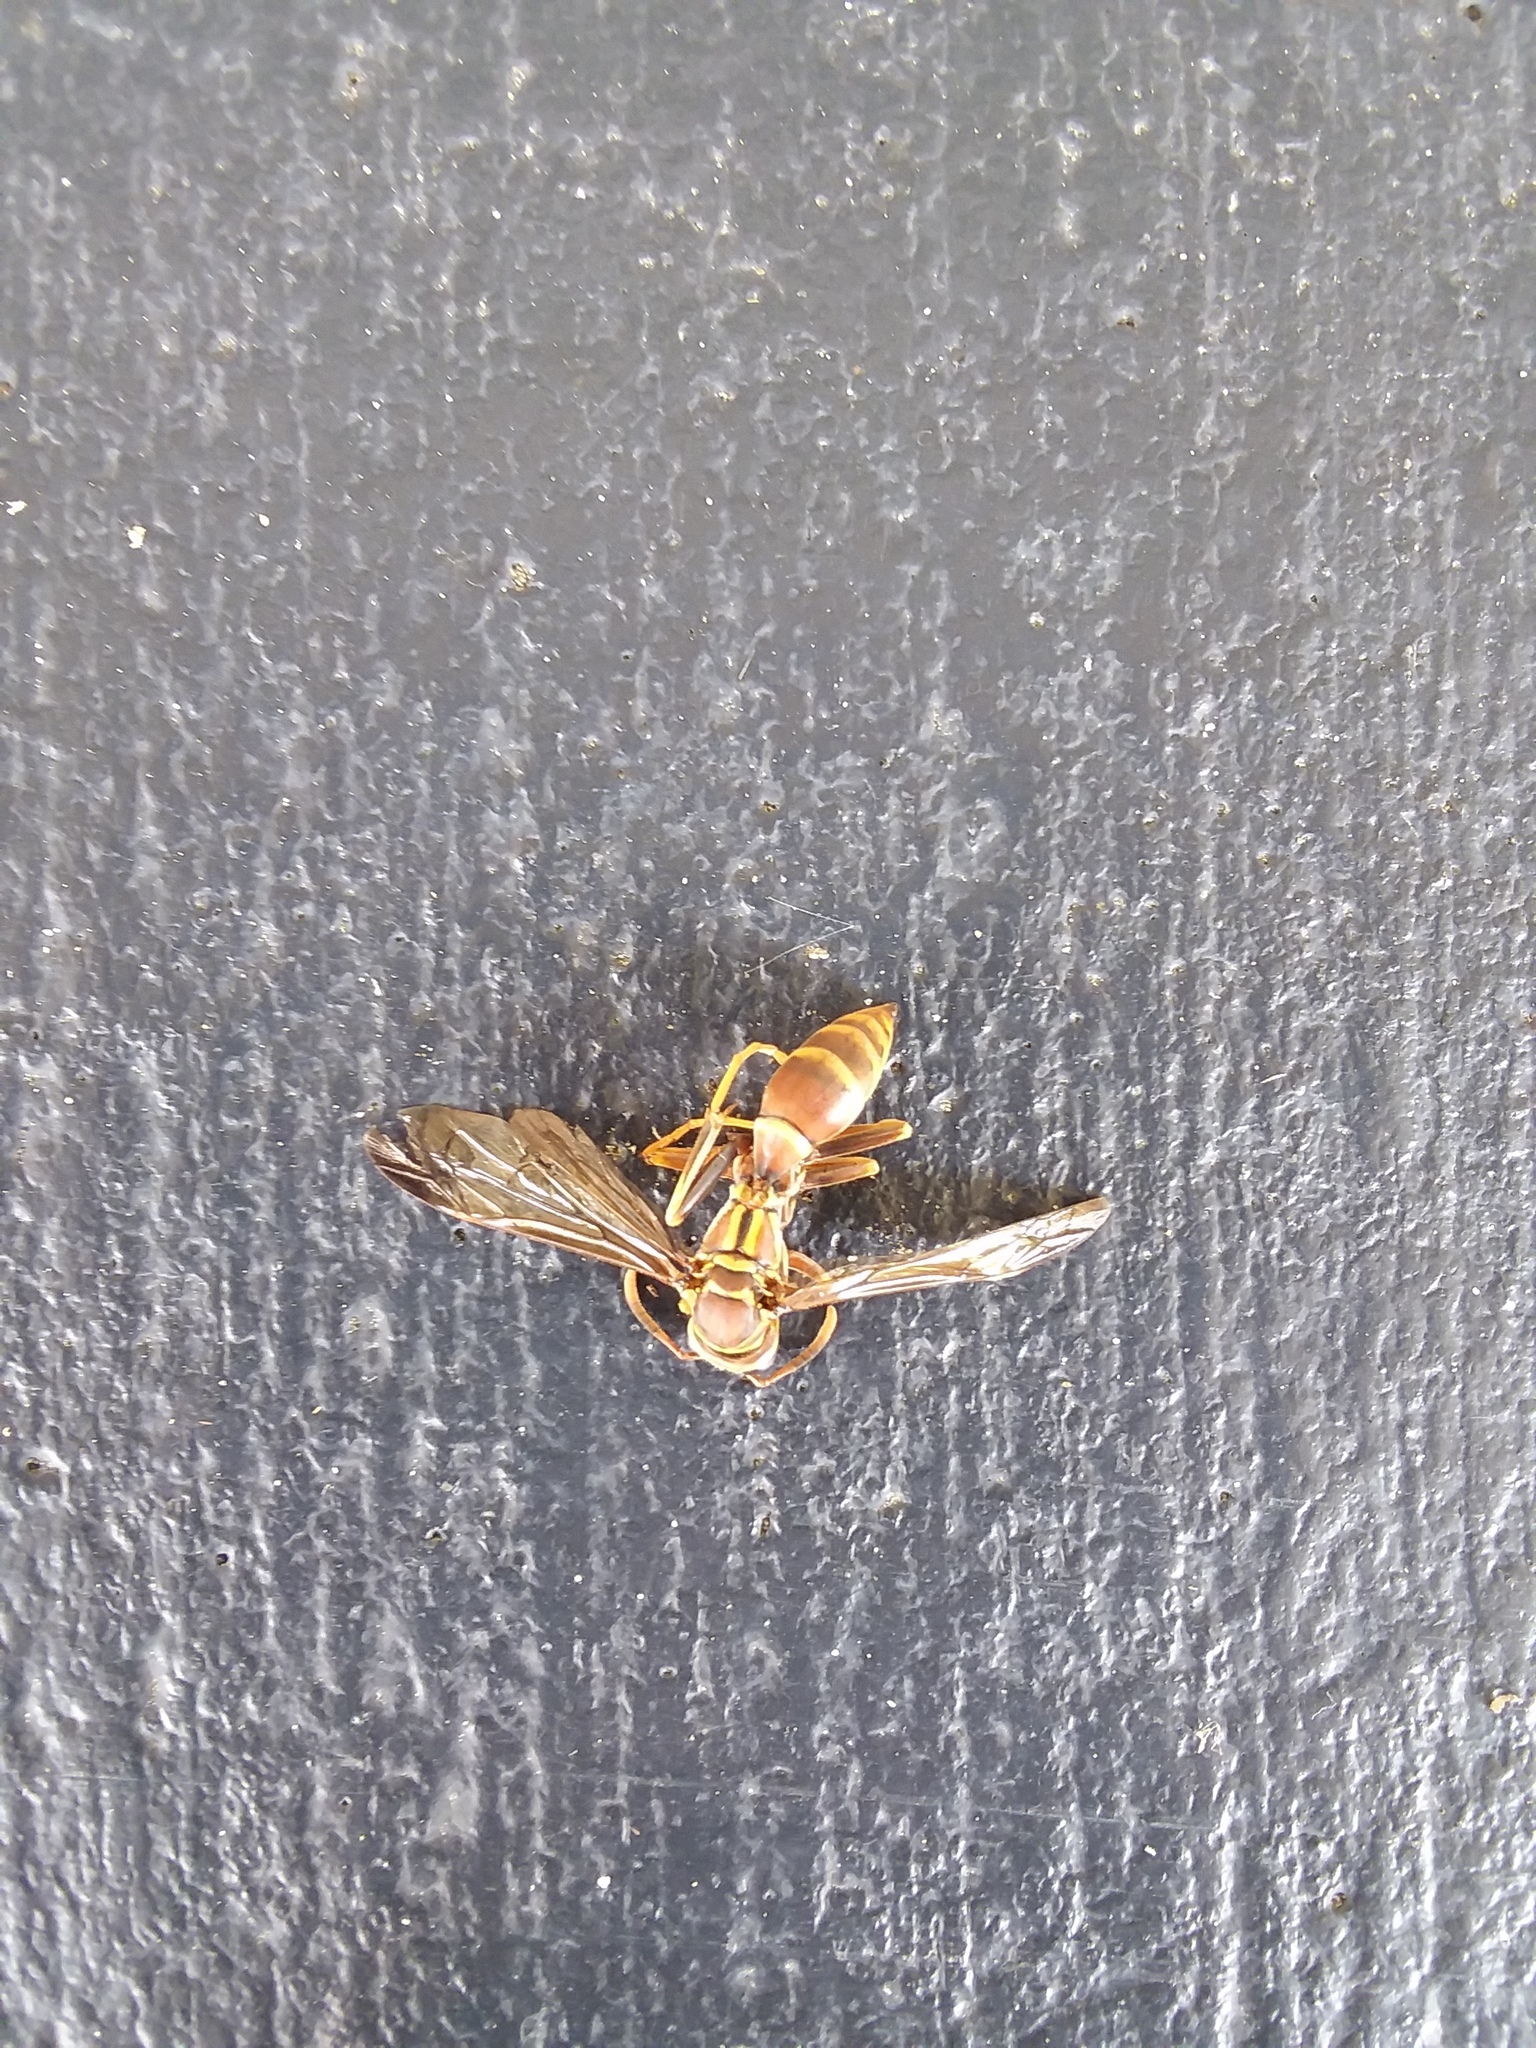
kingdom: Animalia
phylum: Arthropoda
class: Insecta
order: Hymenoptera
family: Eumenidae
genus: Polistes
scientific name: Polistes exclamans
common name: Paper wasp
